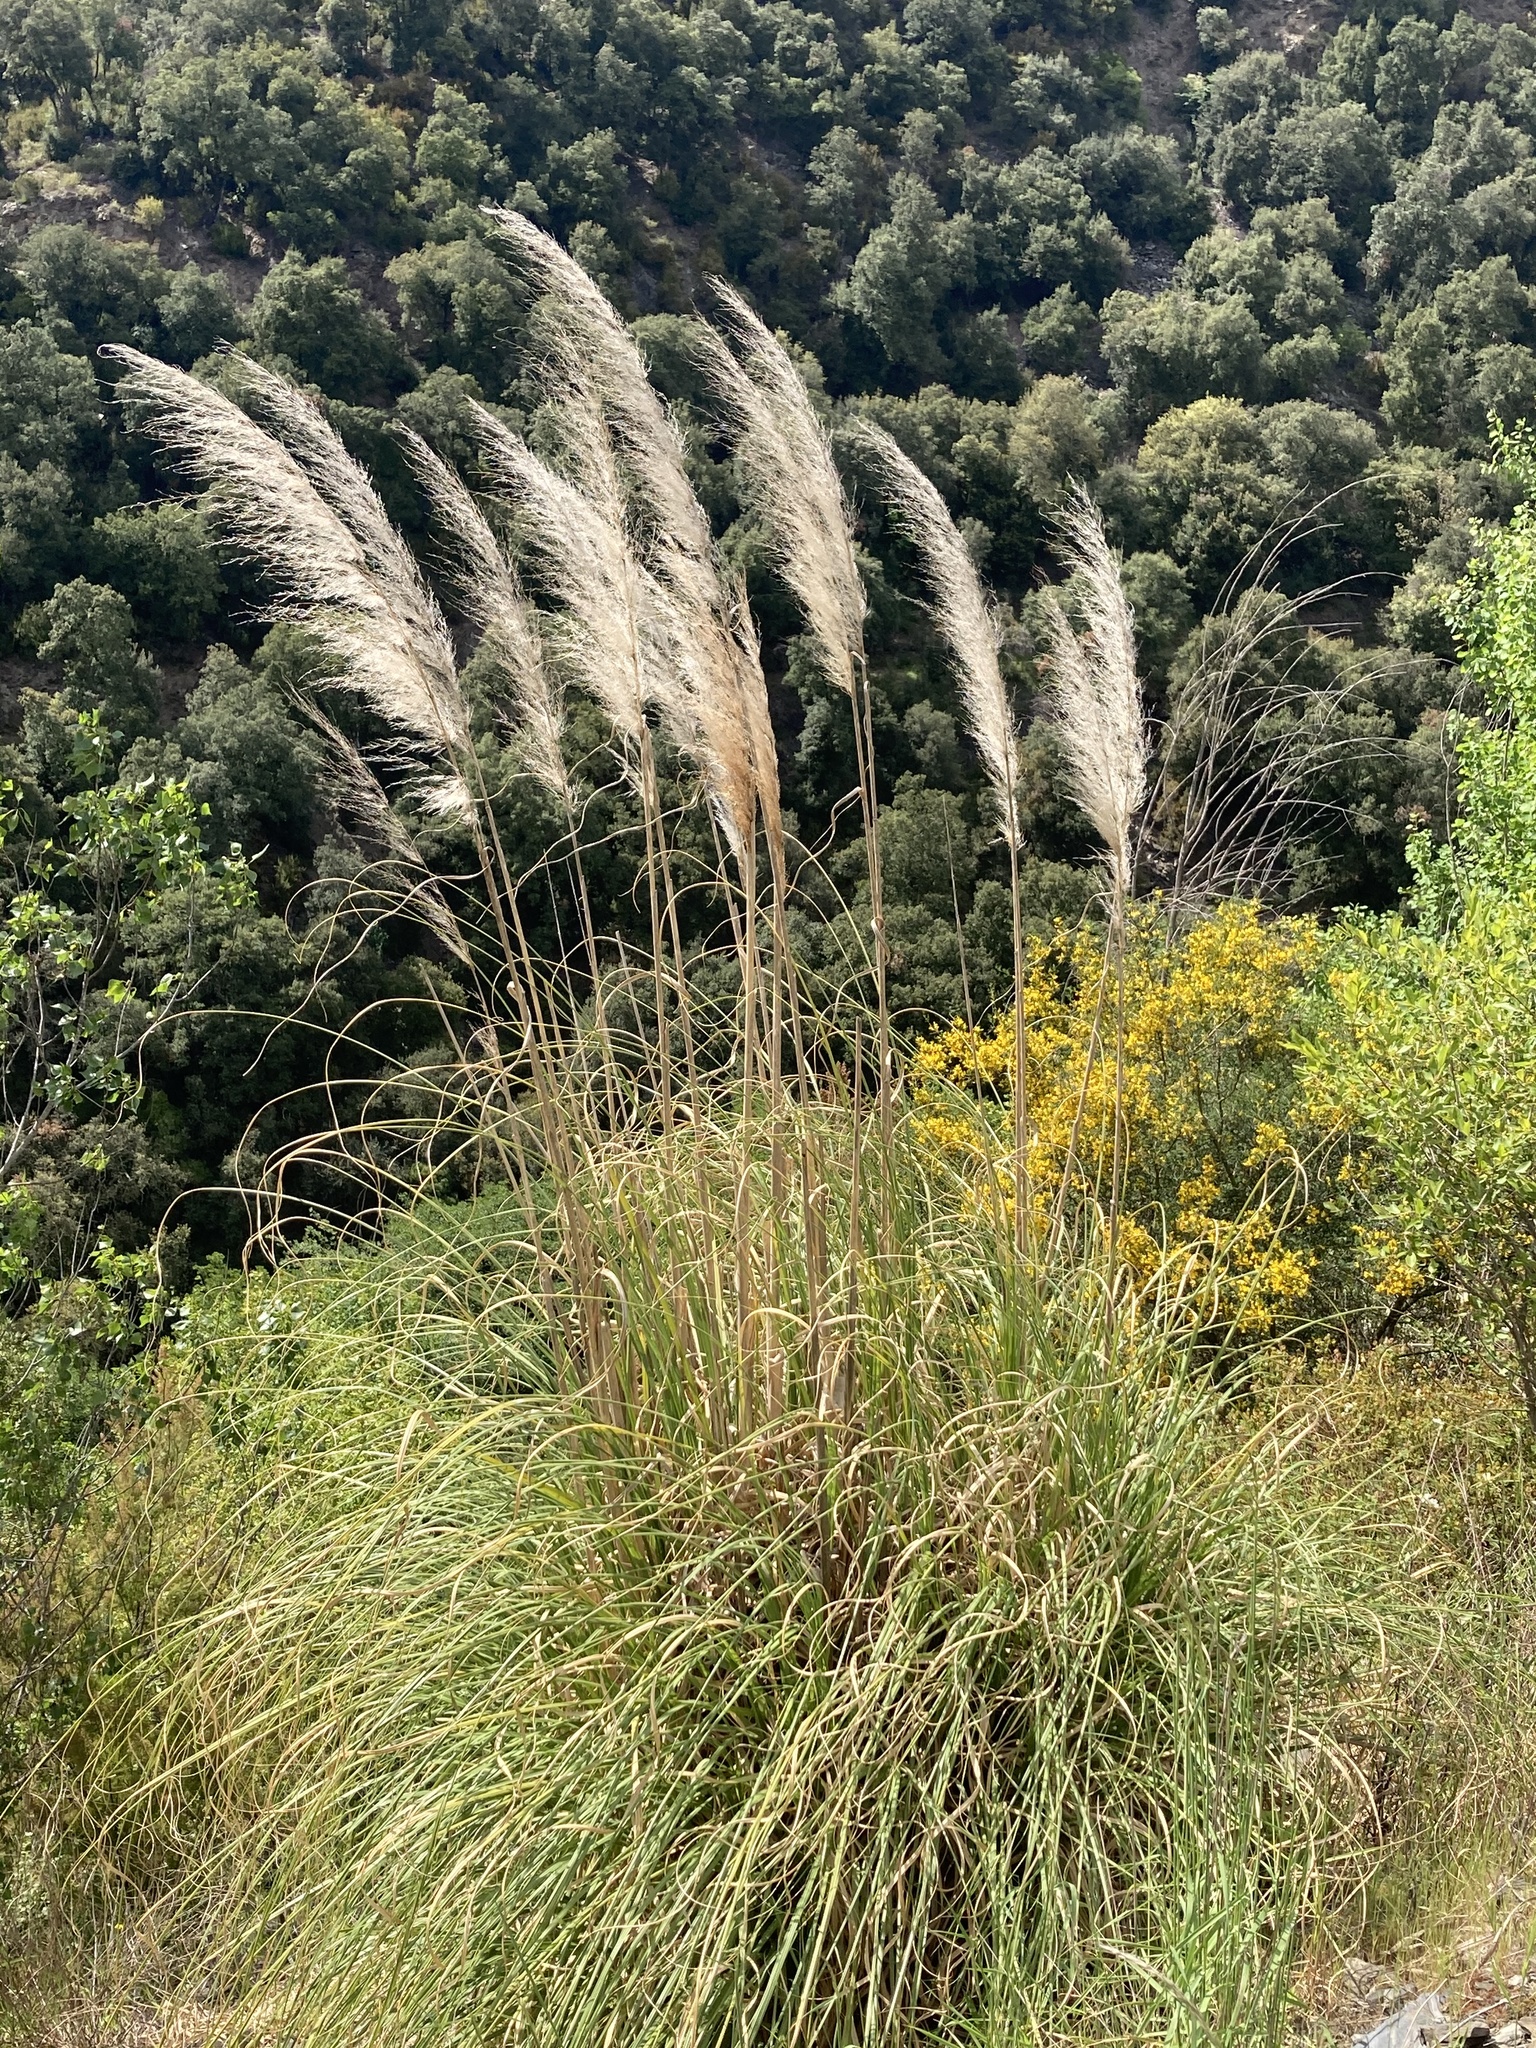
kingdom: Plantae
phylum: Tracheophyta
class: Liliopsida
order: Poales
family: Poaceae
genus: Cortaderia
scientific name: Cortaderia selloana
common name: Uruguayan pampas grass
